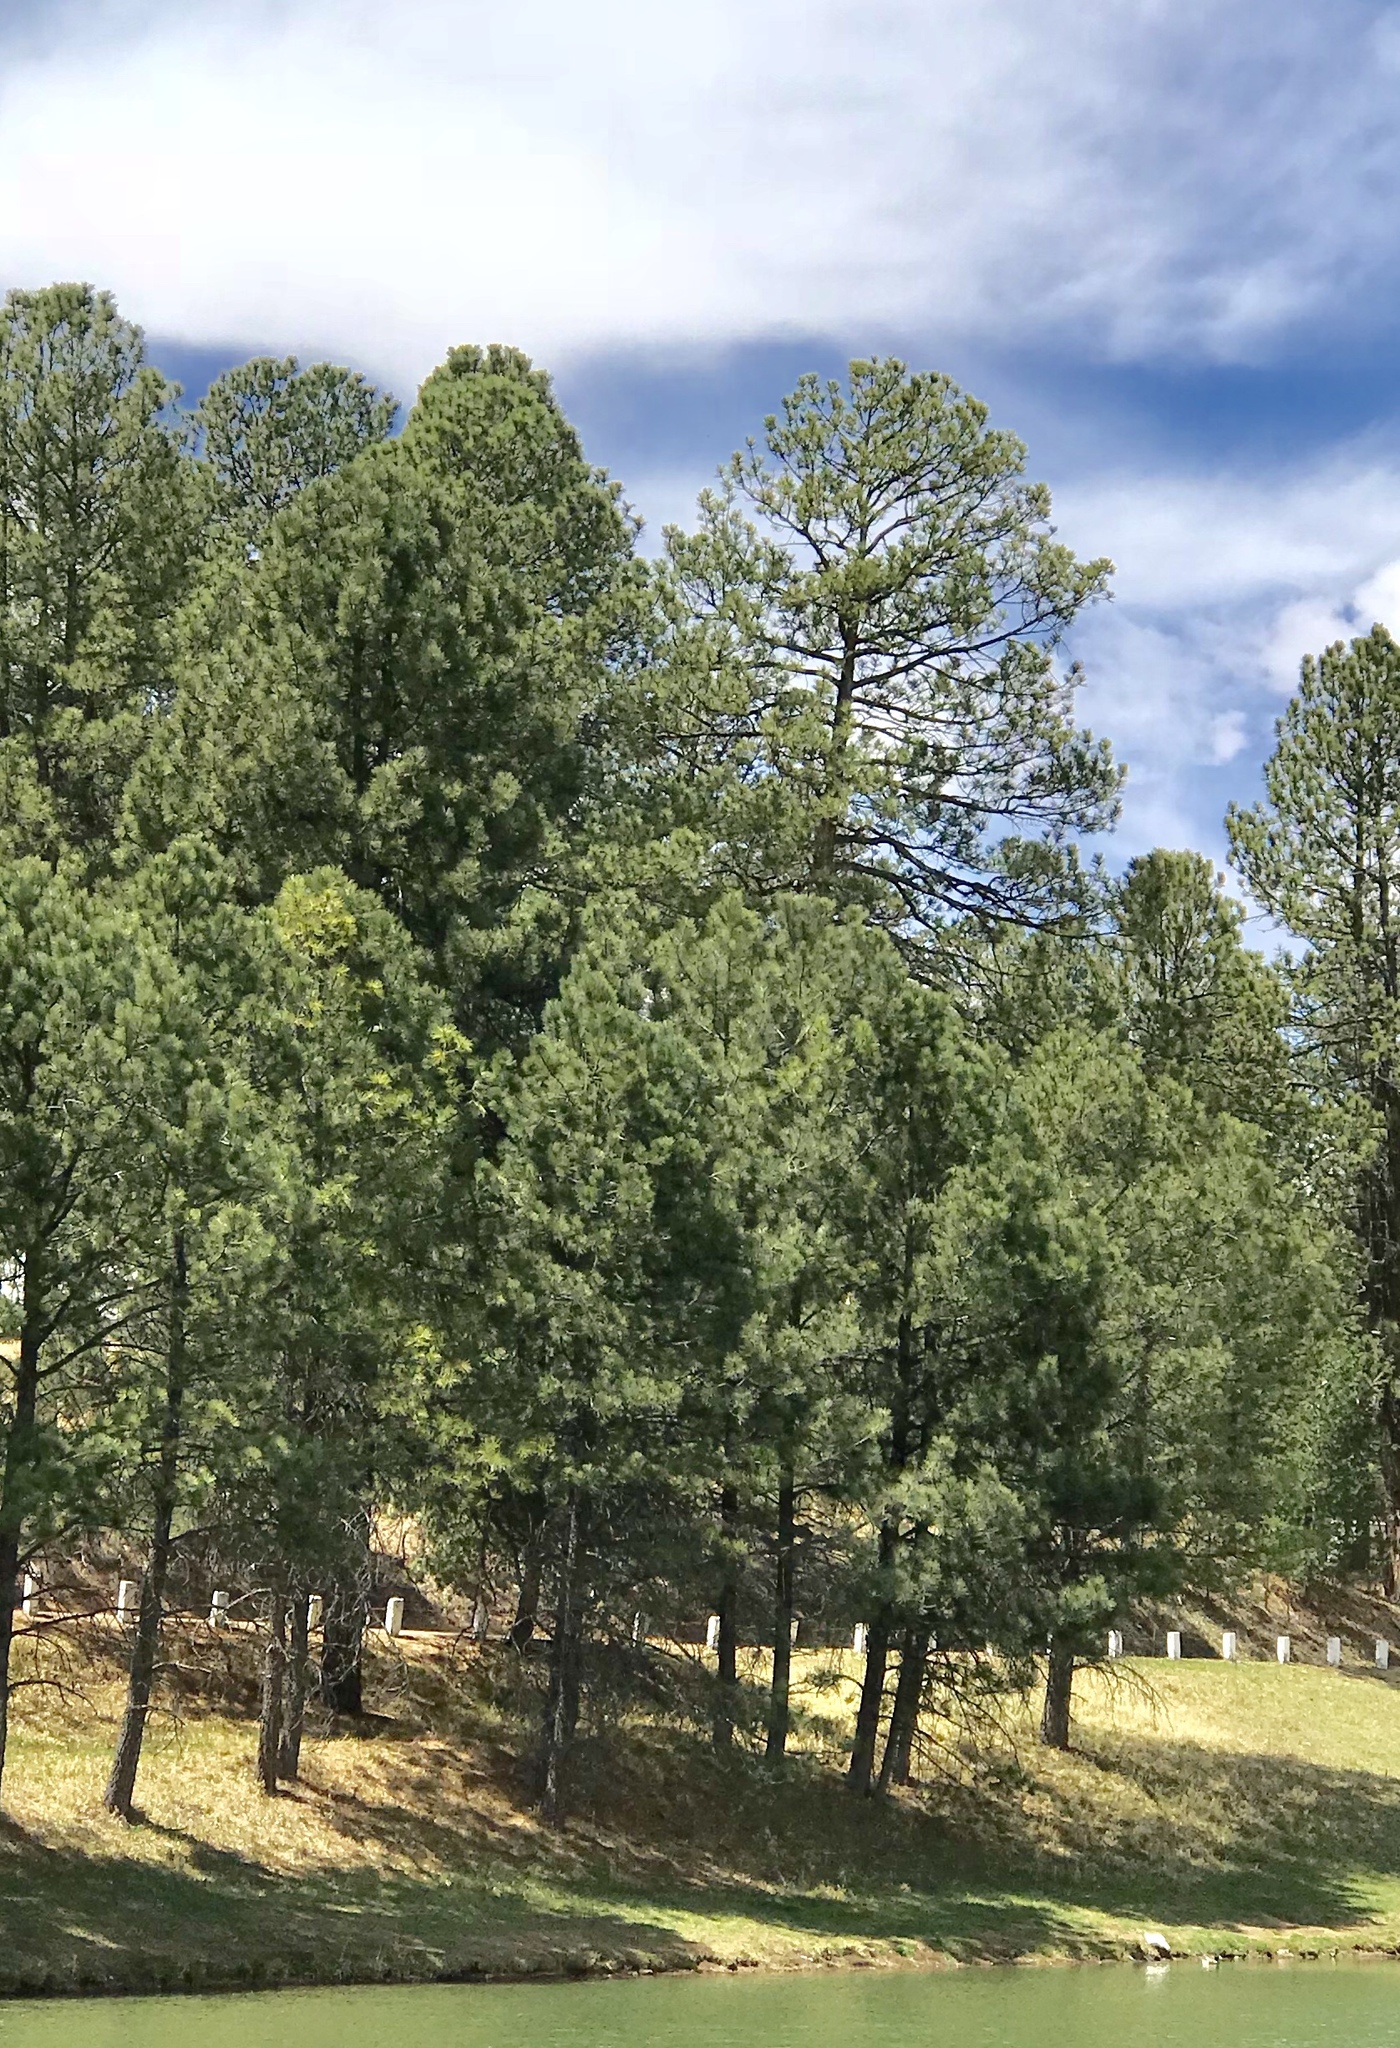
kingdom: Plantae
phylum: Tracheophyta
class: Pinopsida
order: Pinales
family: Pinaceae
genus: Pinus
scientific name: Pinus ponderosa
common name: Western yellow-pine
